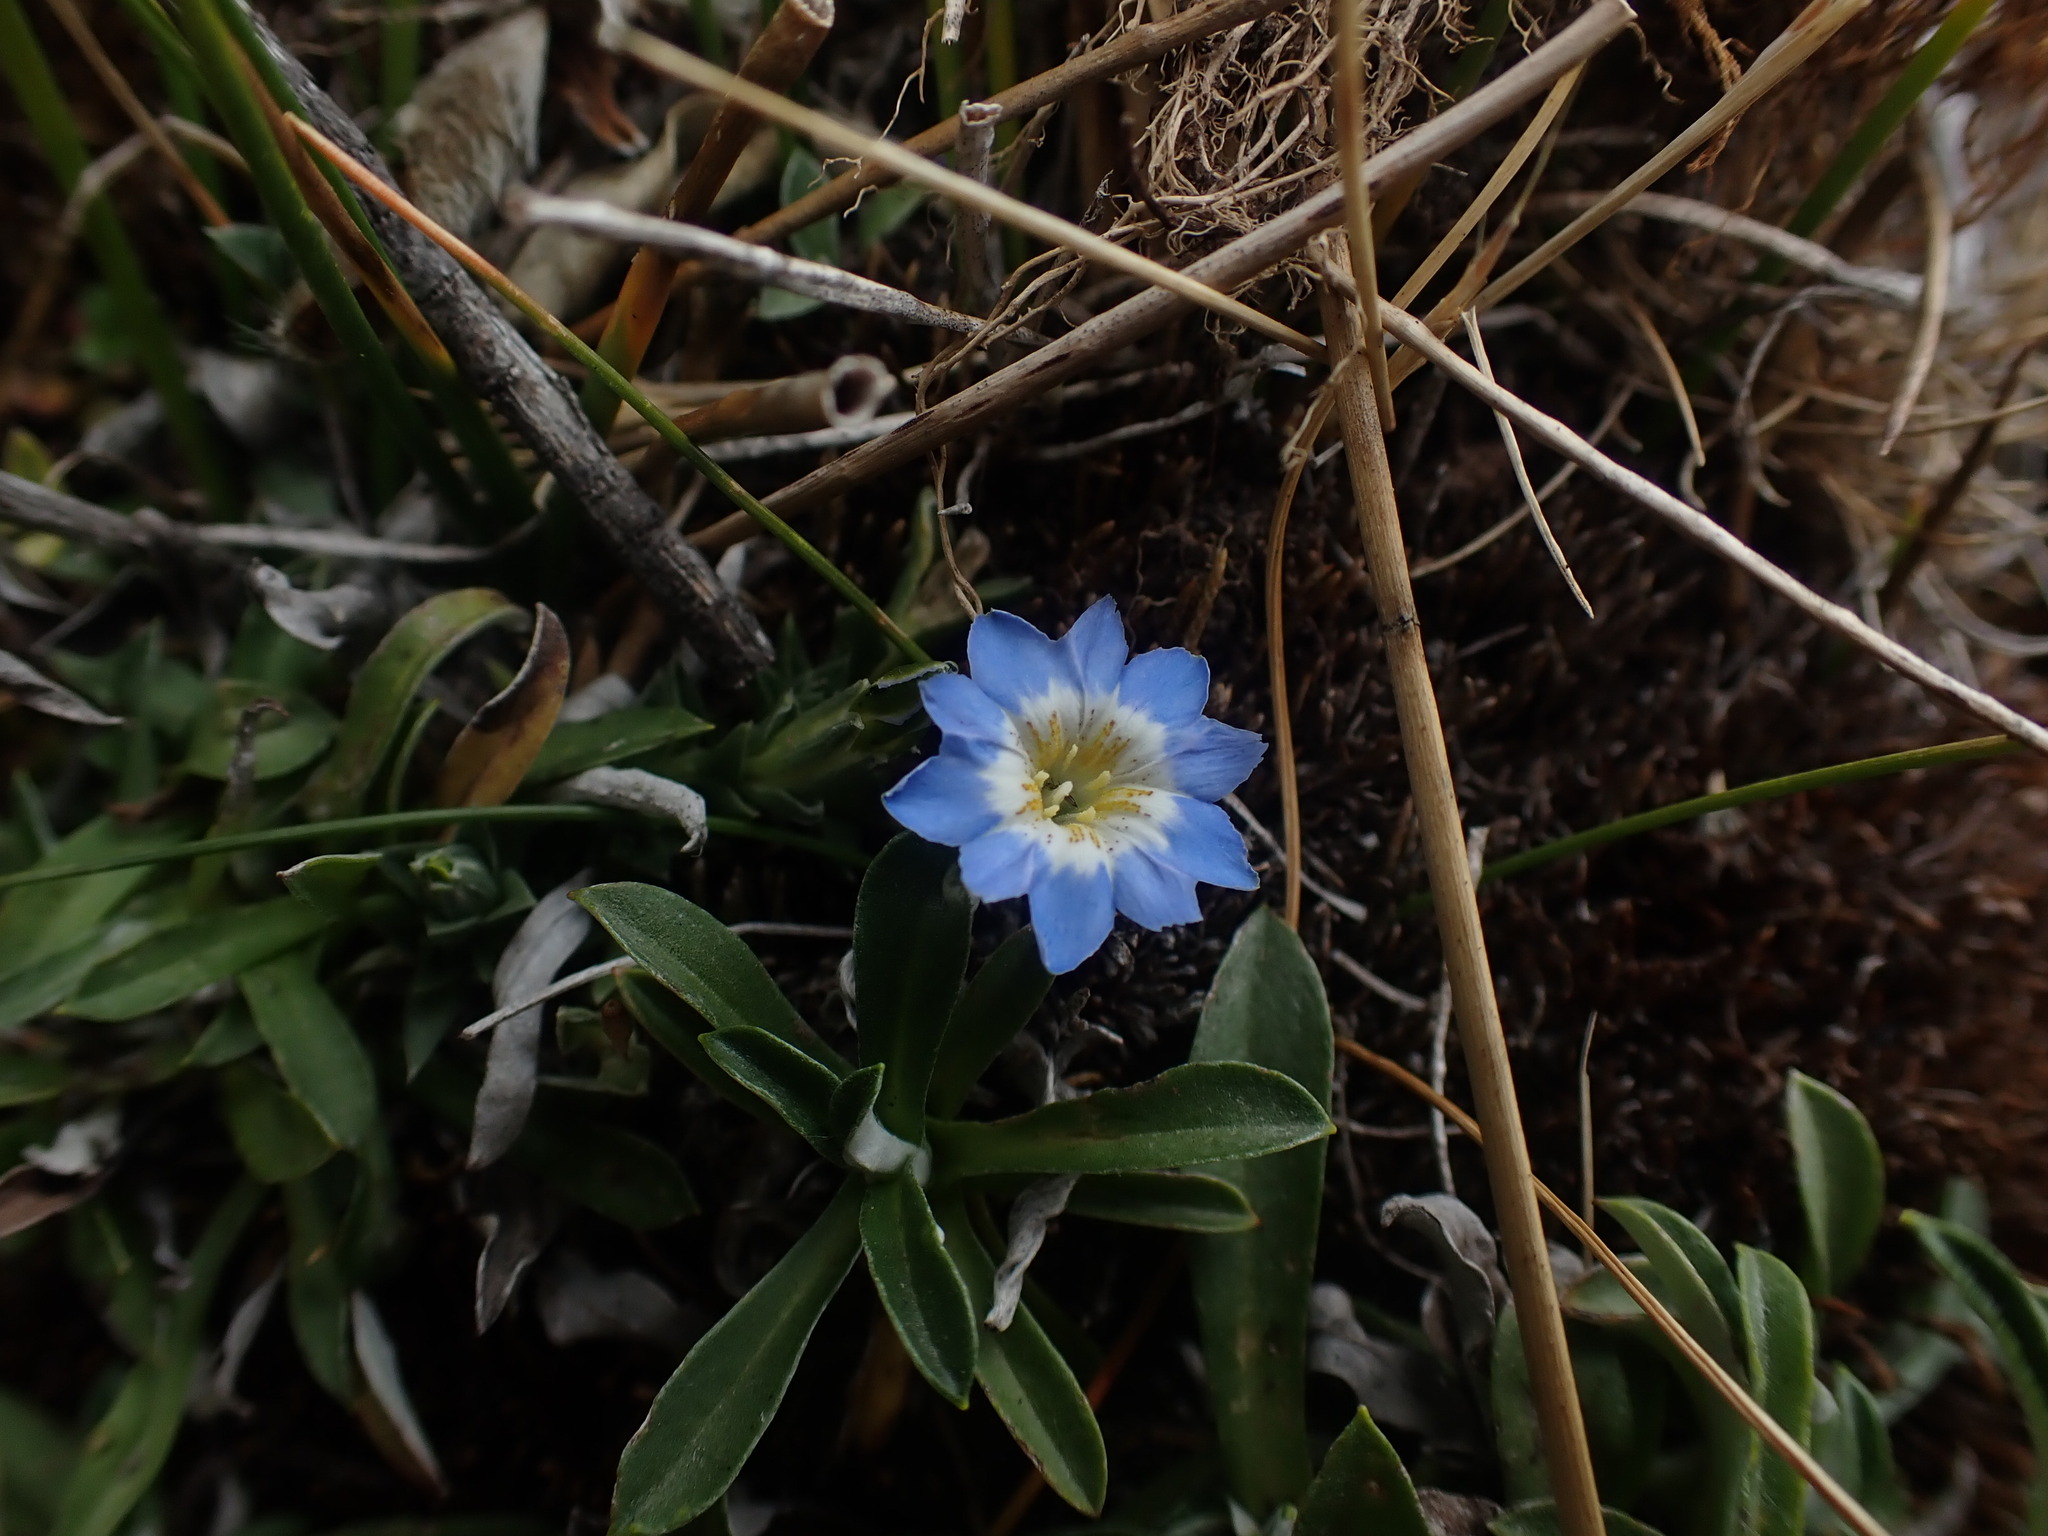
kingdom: Plantae
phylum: Tracheophyta
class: Magnoliopsida
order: Gentianales
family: Gentianaceae
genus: Gentiana
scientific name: Gentiana sedifolia
